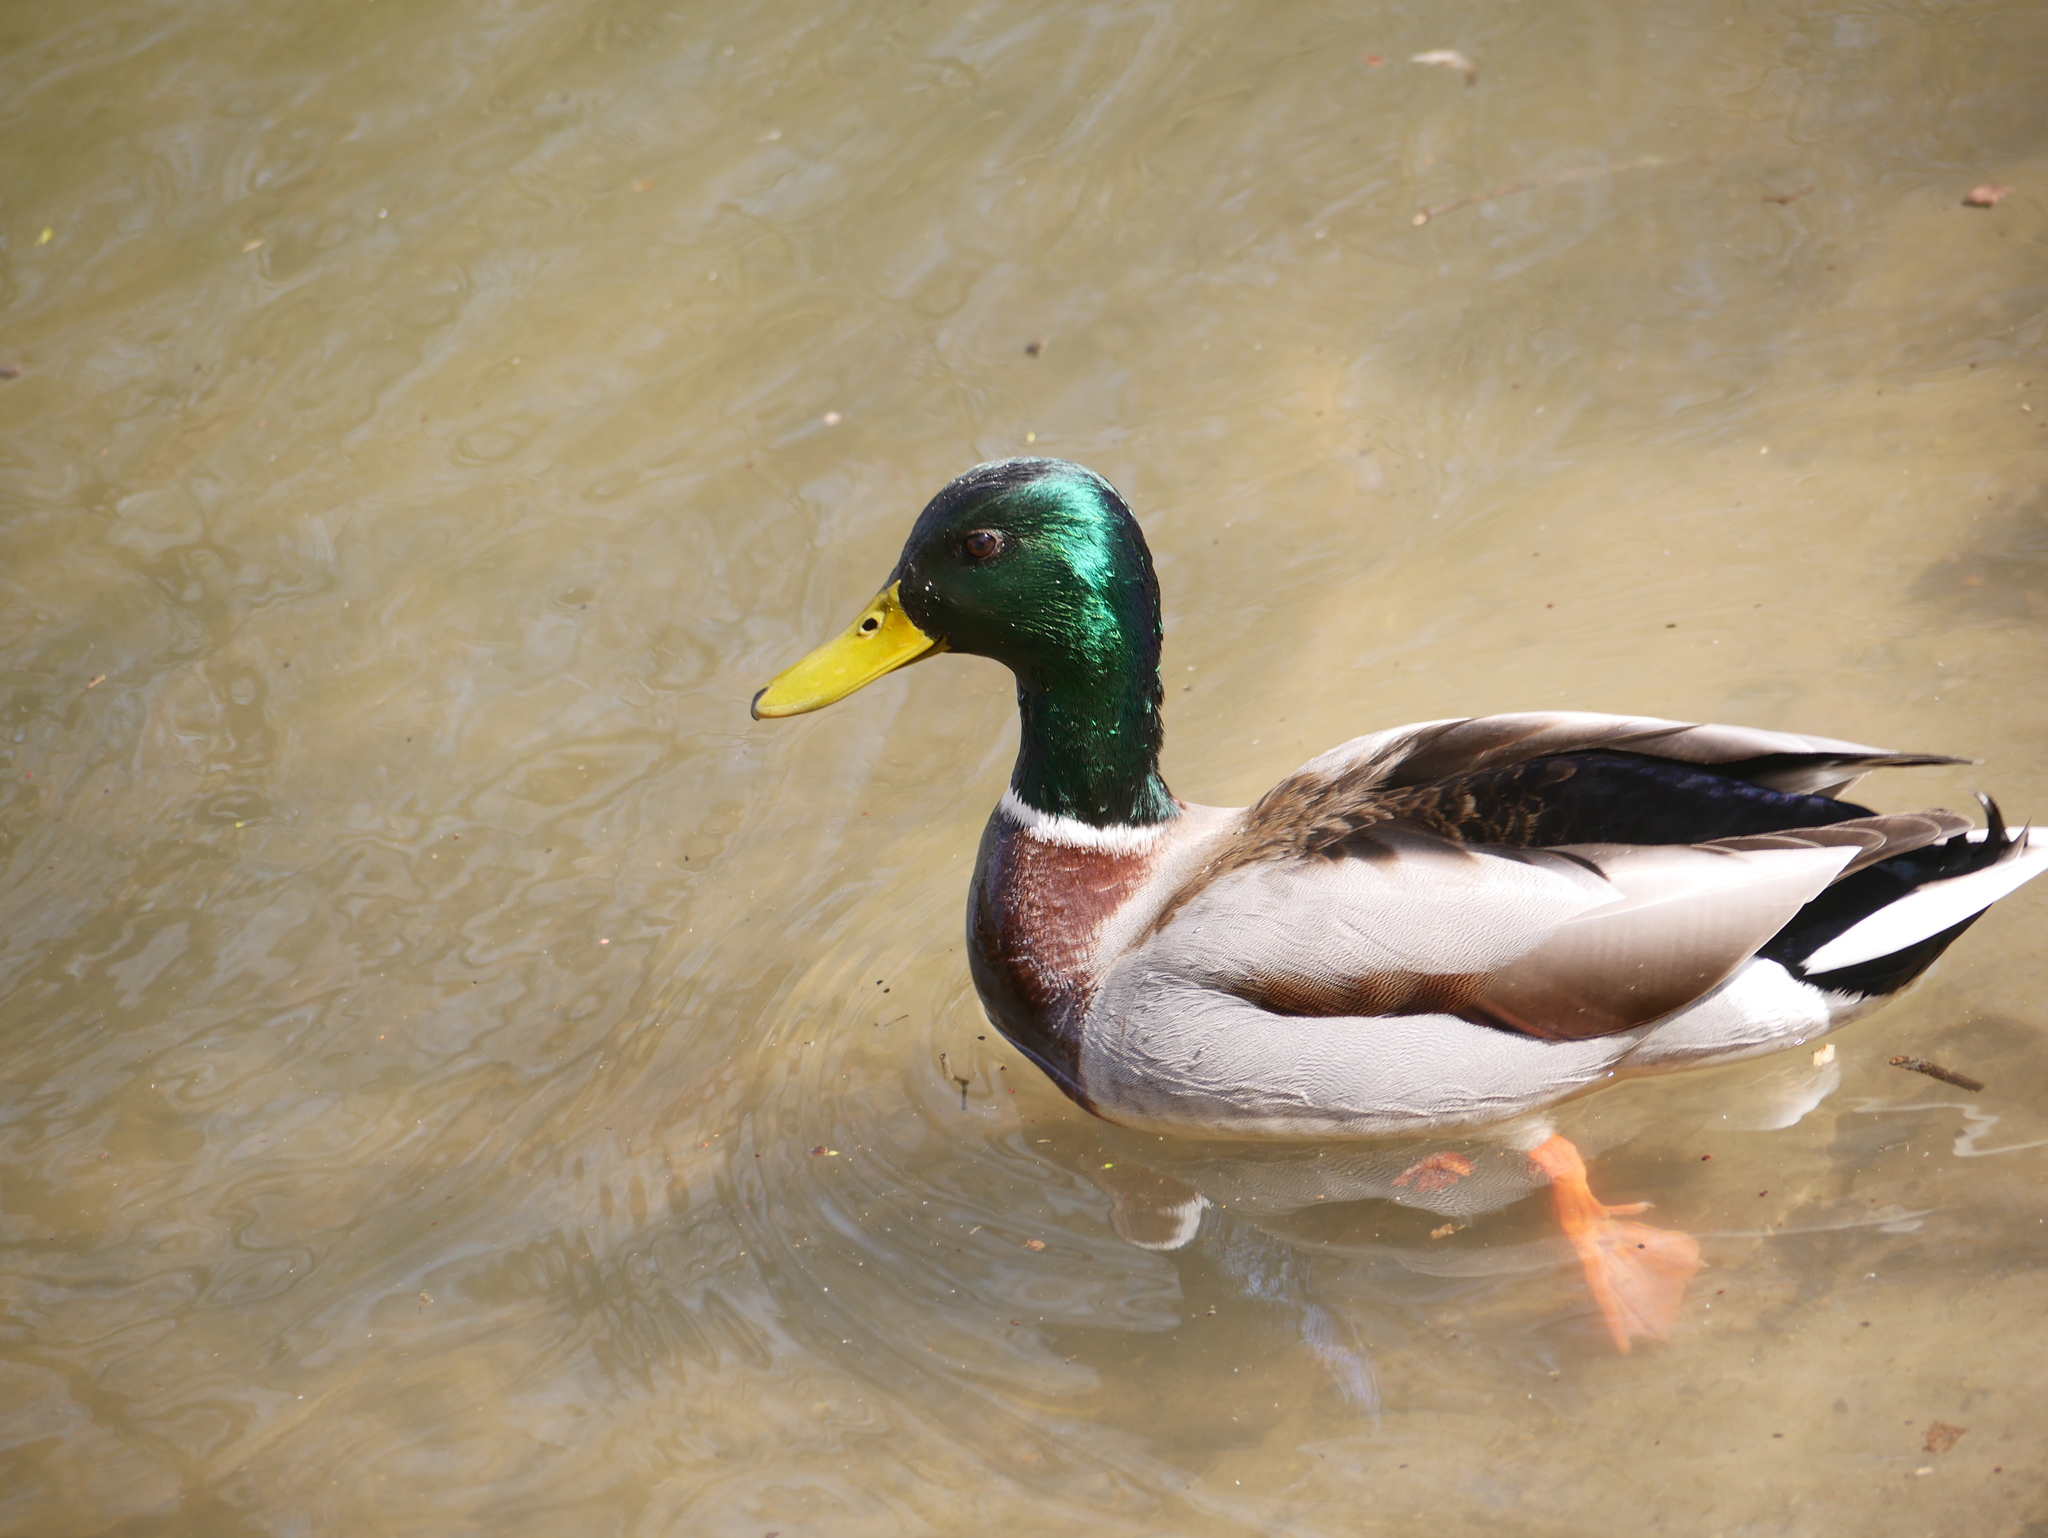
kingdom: Animalia
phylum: Chordata
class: Aves
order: Anseriformes
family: Anatidae
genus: Anas
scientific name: Anas platyrhynchos
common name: Mallard
